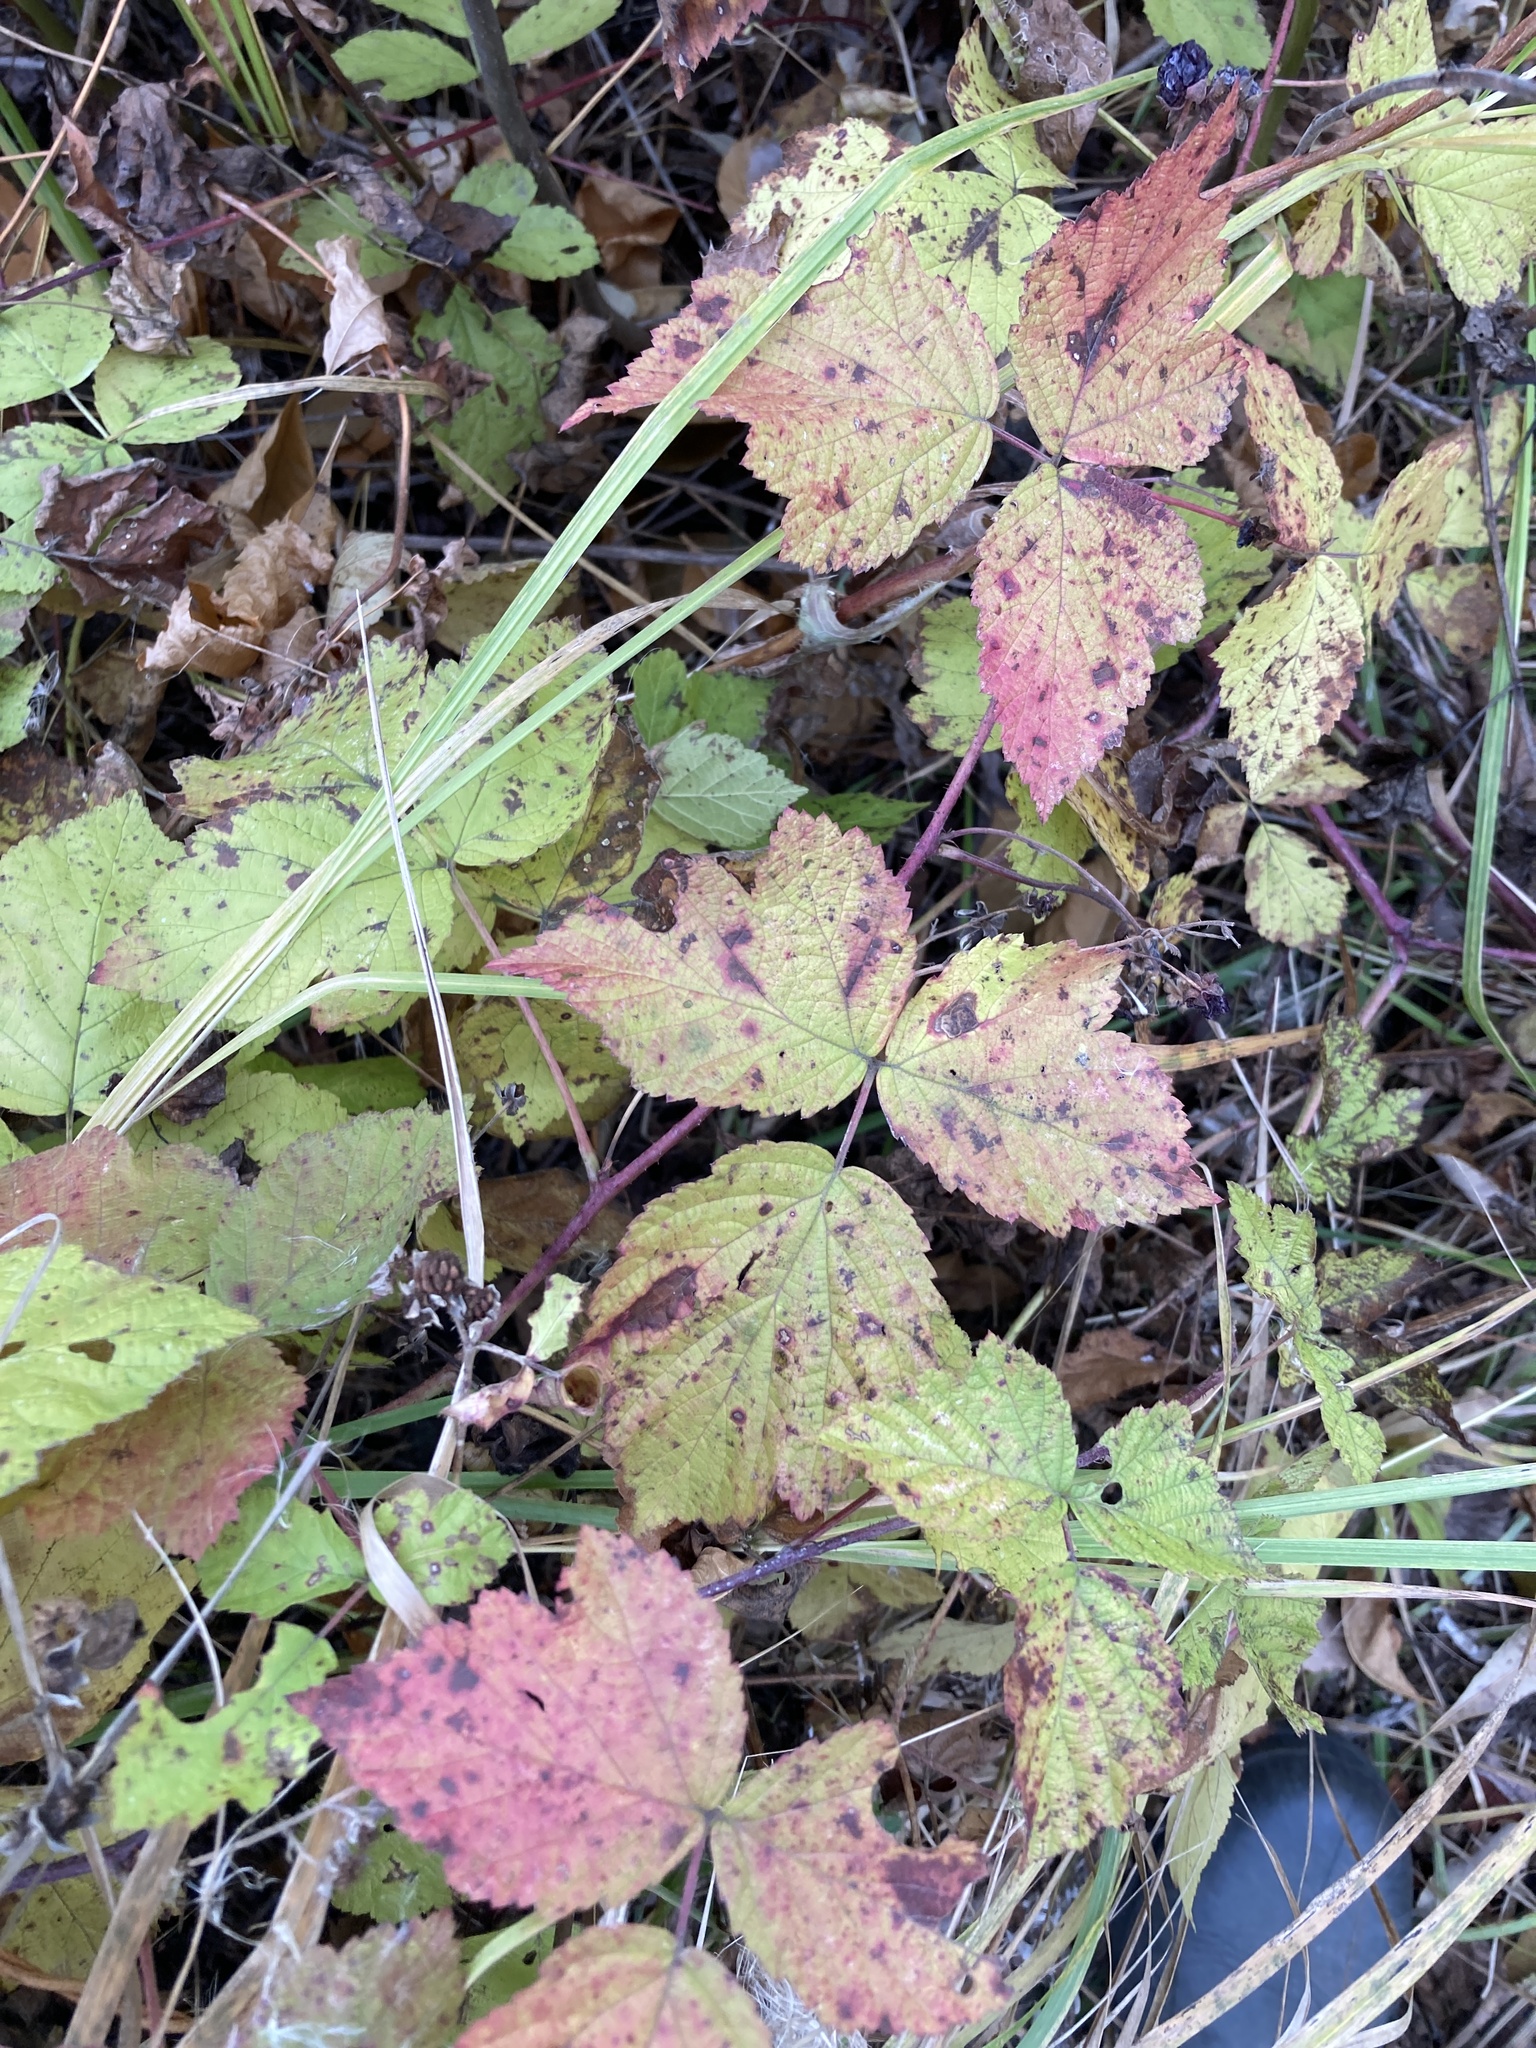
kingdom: Plantae
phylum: Tracheophyta
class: Magnoliopsida
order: Rosales
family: Rosaceae
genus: Rubus
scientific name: Rubus caesius
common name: Dewberry
